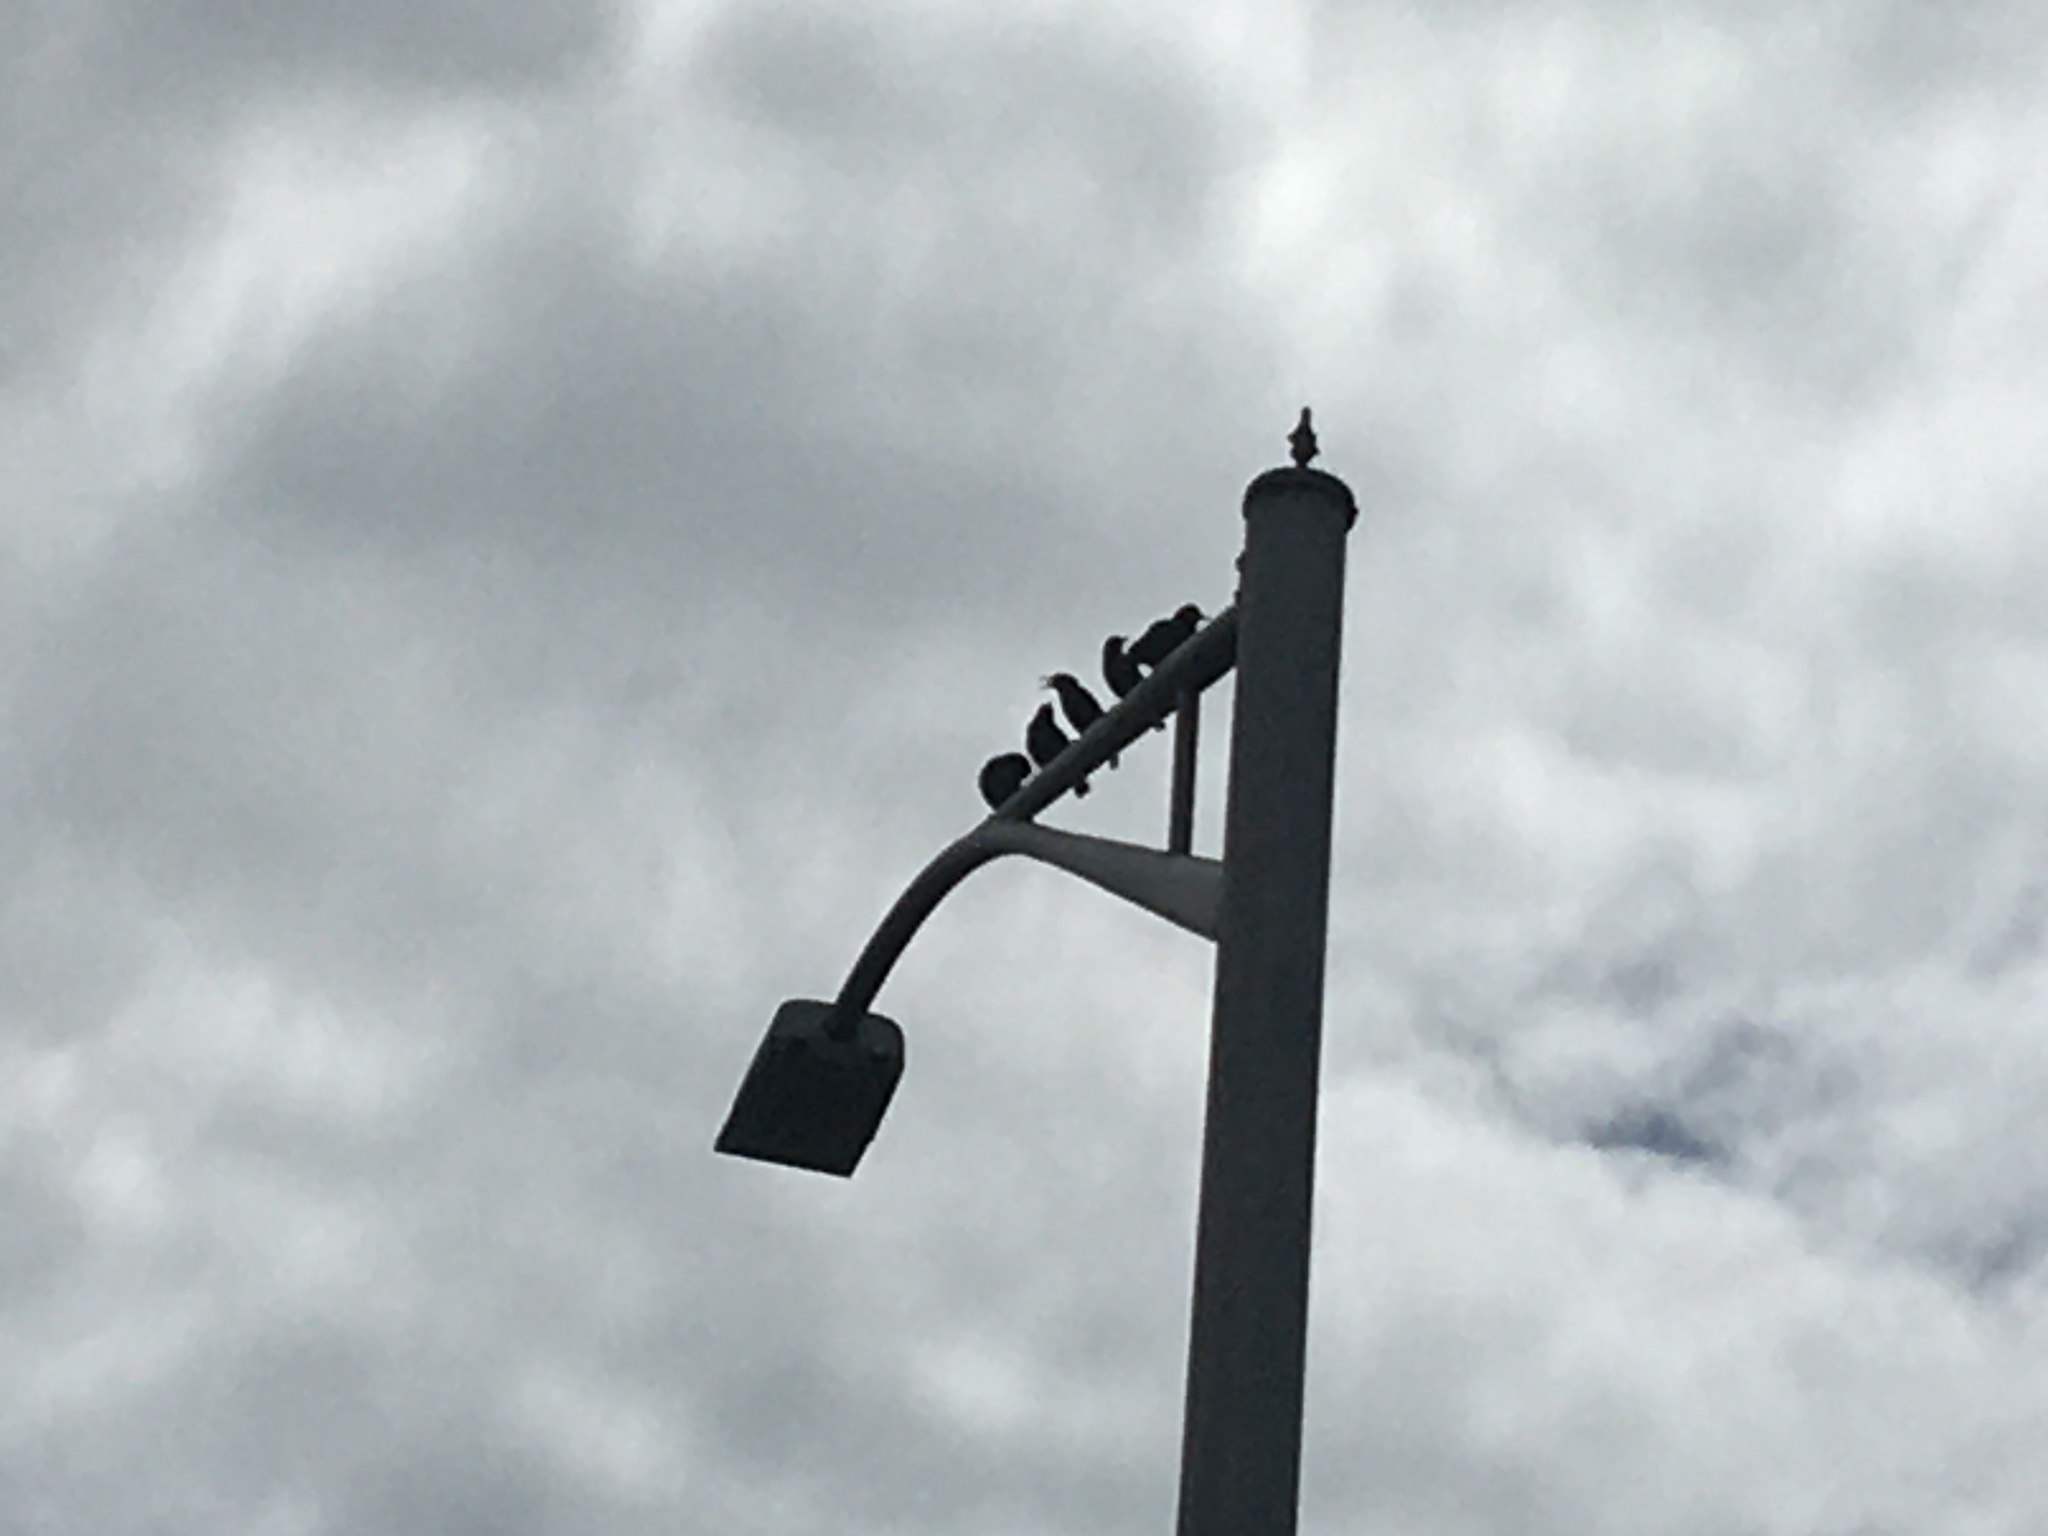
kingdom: Animalia
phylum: Chordata
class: Aves
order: Passeriformes
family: Sturnidae
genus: Sturnus
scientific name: Sturnus vulgaris
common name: Common starling
